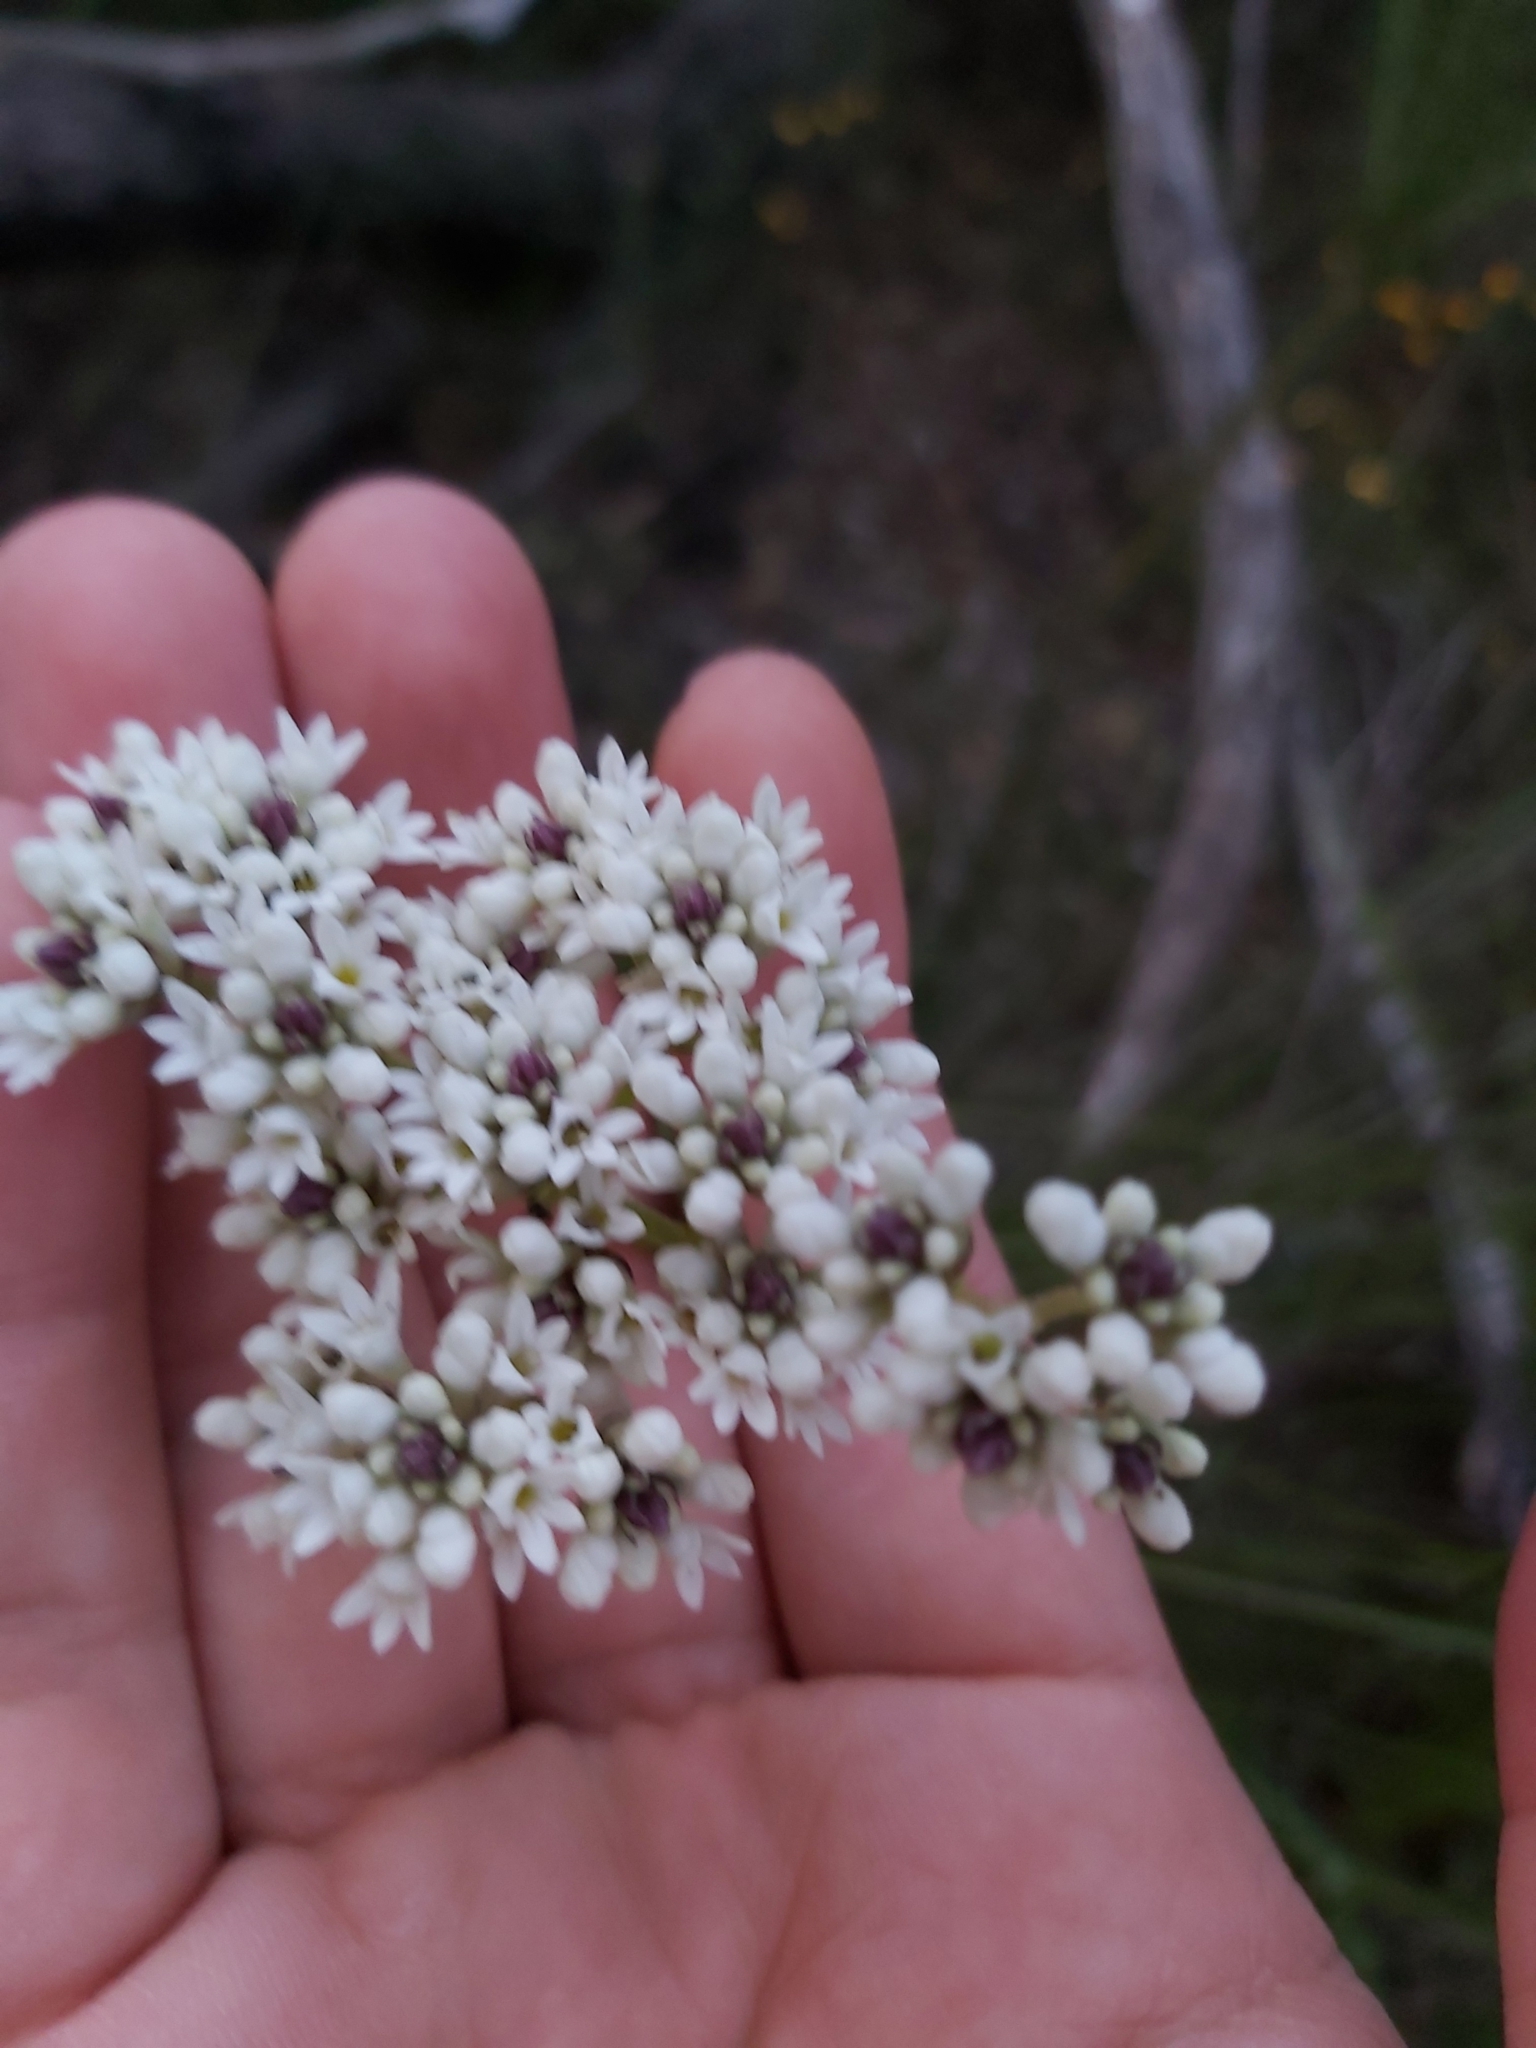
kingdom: Plantae
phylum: Tracheophyta
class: Magnoliopsida
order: Proteales
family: Proteaceae
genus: Conospermum
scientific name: Conospermum longifolium
